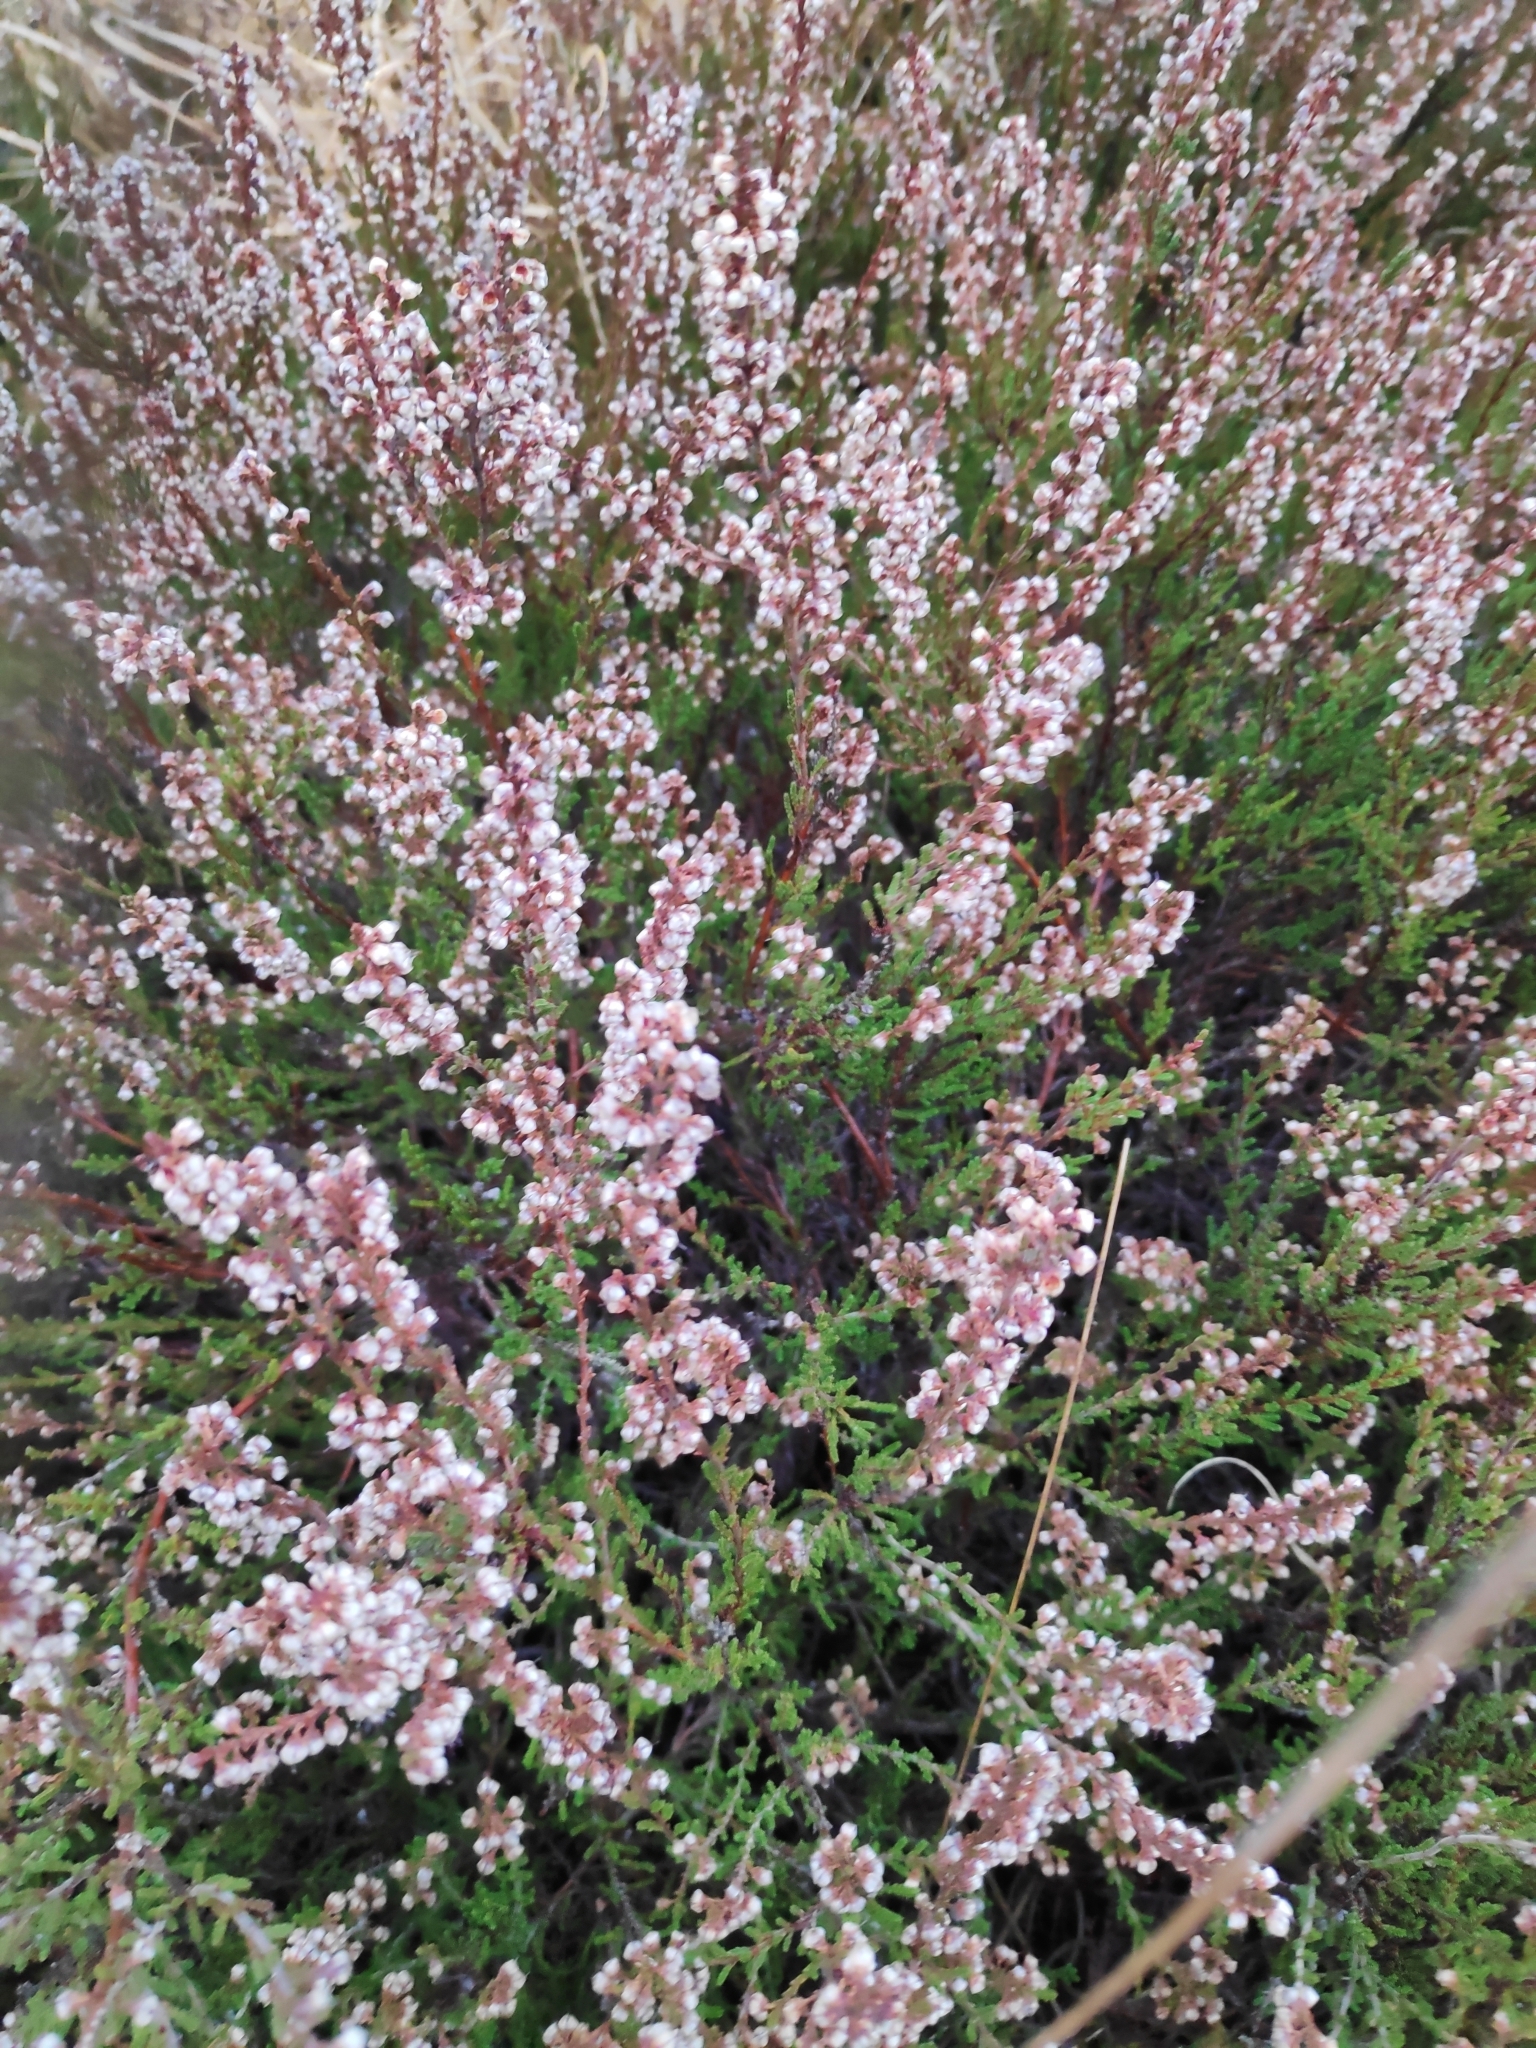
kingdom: Plantae
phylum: Tracheophyta
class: Magnoliopsida
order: Ericales
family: Ericaceae
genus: Calluna
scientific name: Calluna vulgaris
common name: Heather
